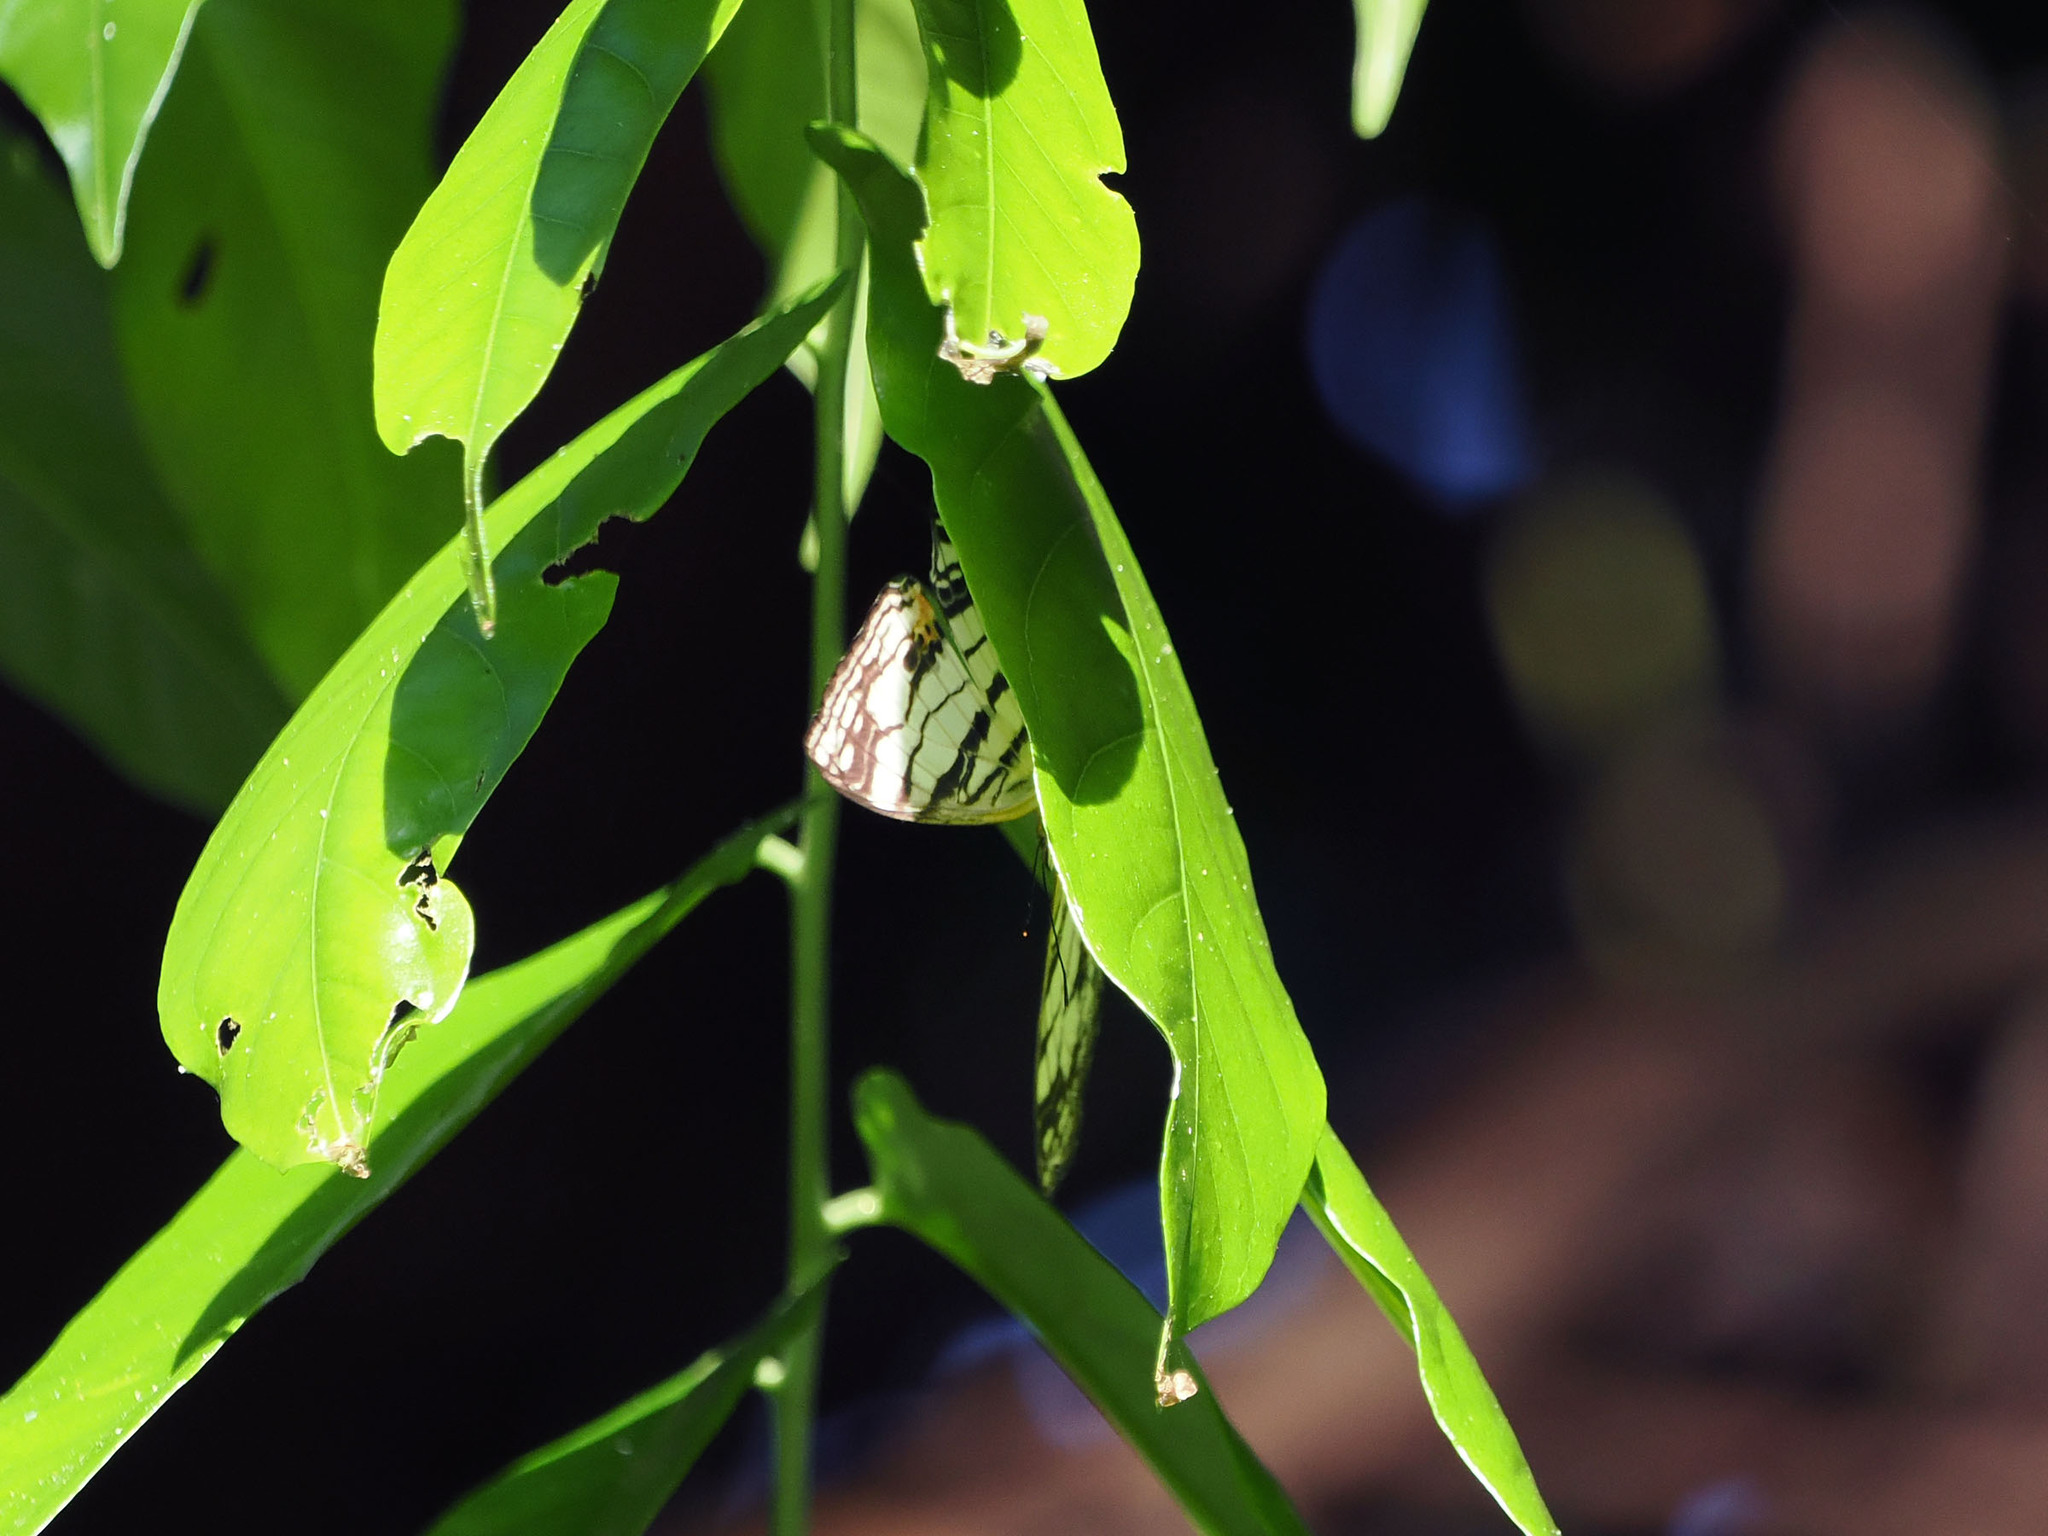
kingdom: Animalia
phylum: Arthropoda
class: Insecta
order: Lepidoptera
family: Nymphalidae
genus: Cyrestis
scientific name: Cyrestis maenalis
